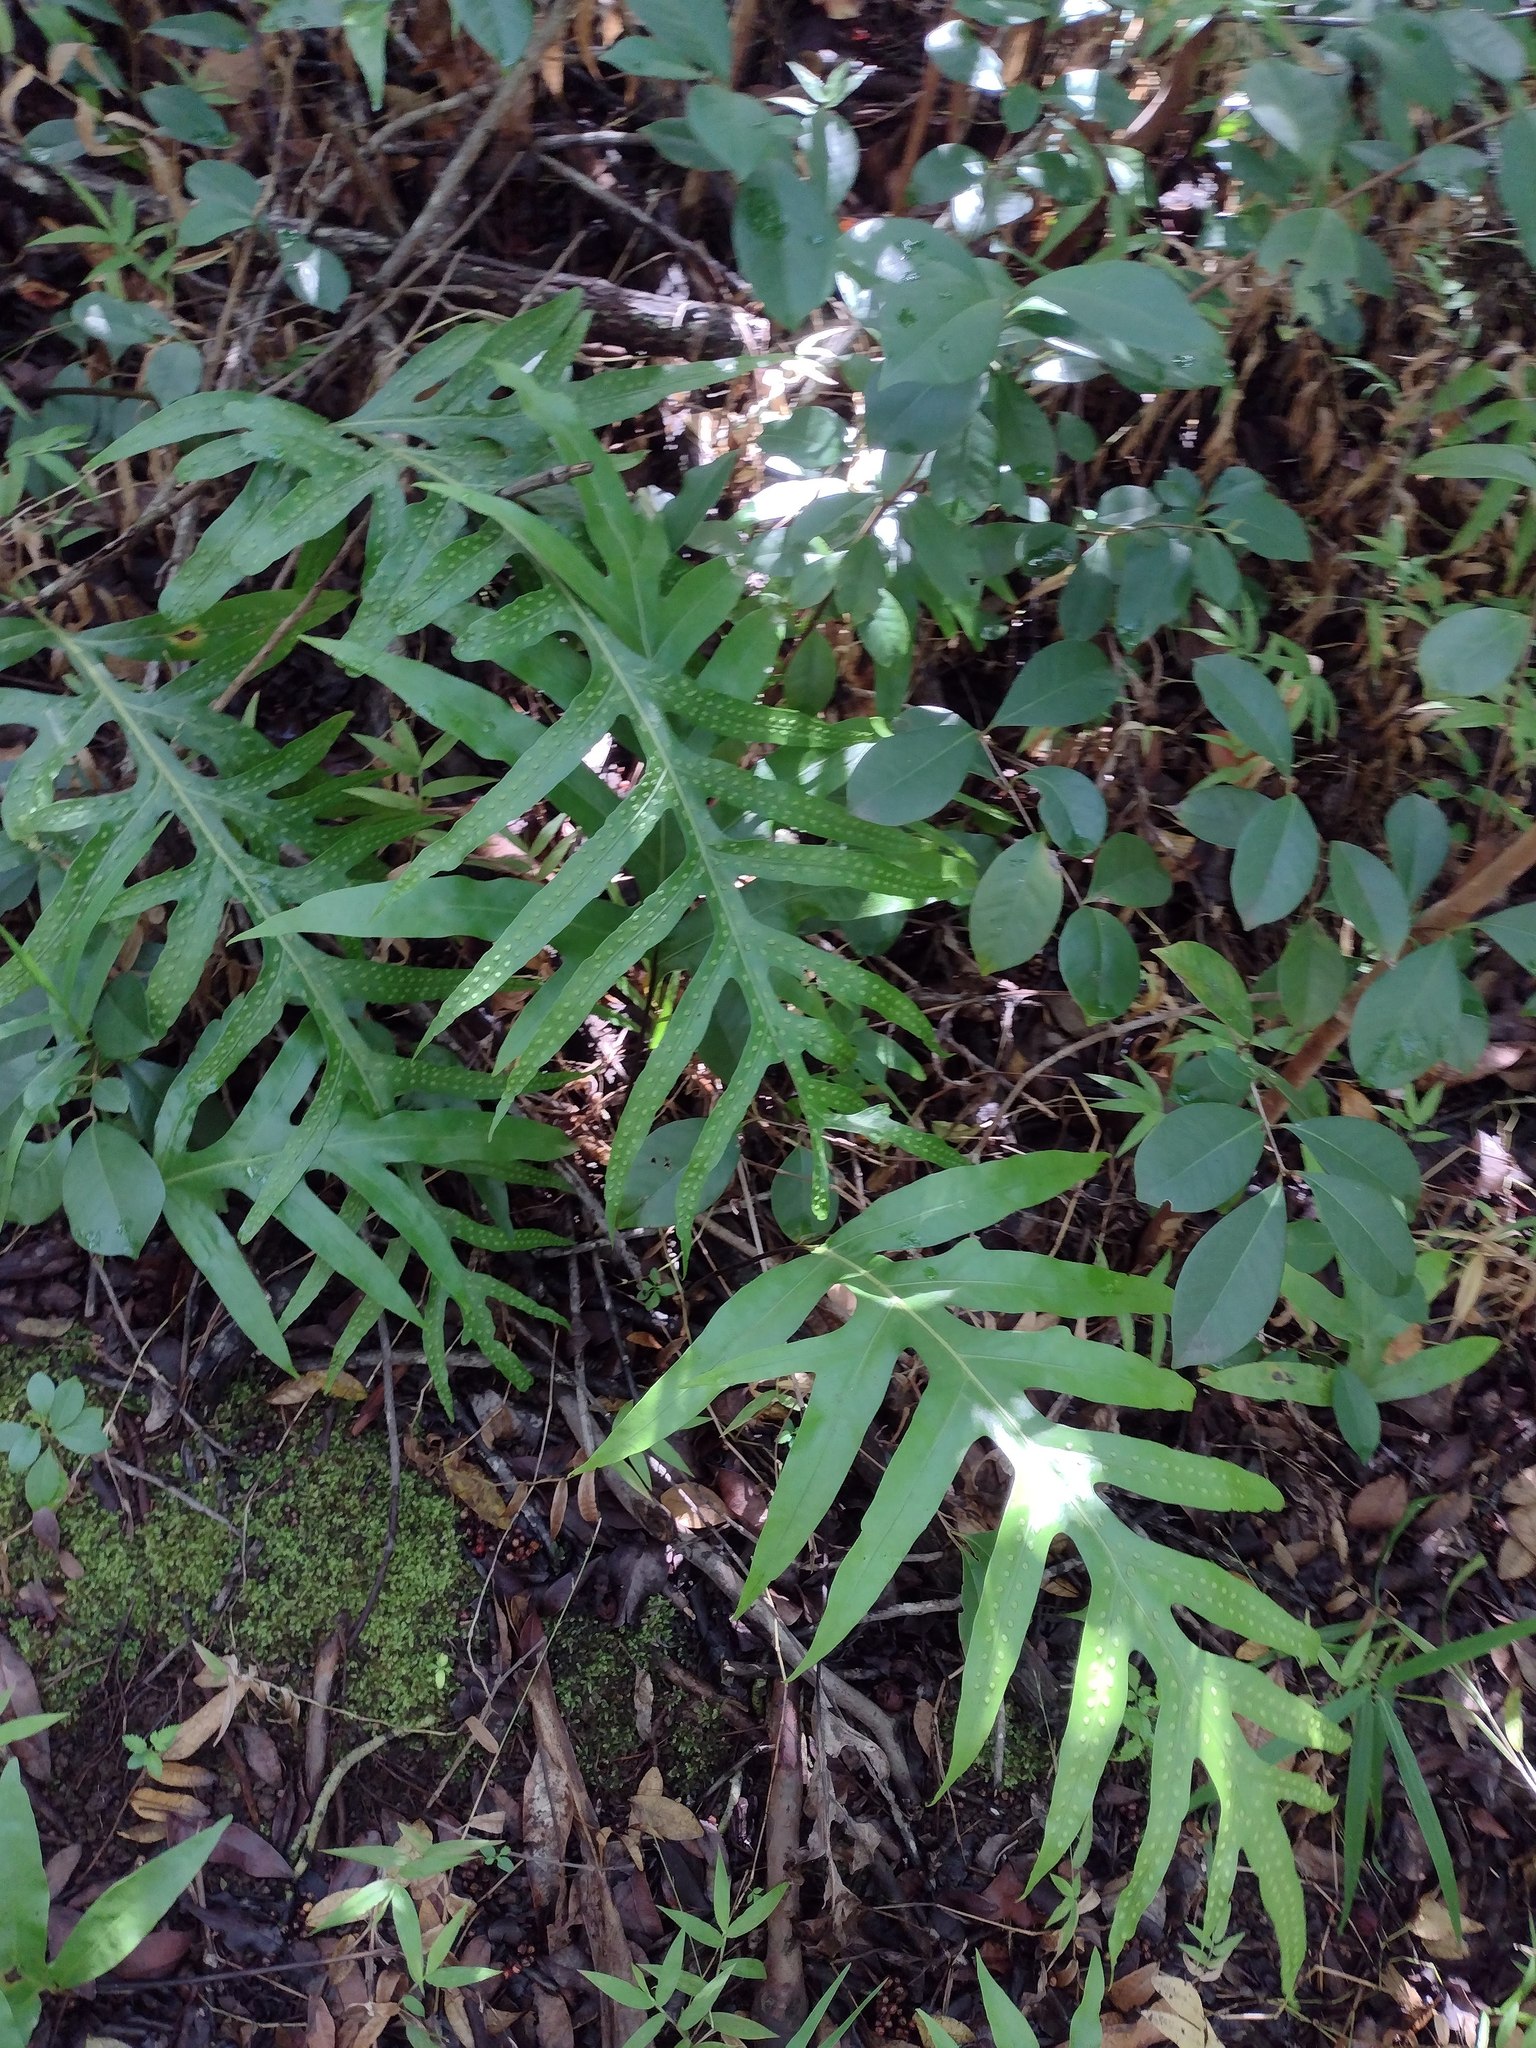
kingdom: Plantae
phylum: Tracheophyta
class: Polypodiopsida
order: Polypodiales
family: Polypodiaceae
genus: Microsorum
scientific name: Microsorum grossum
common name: Musk fern
